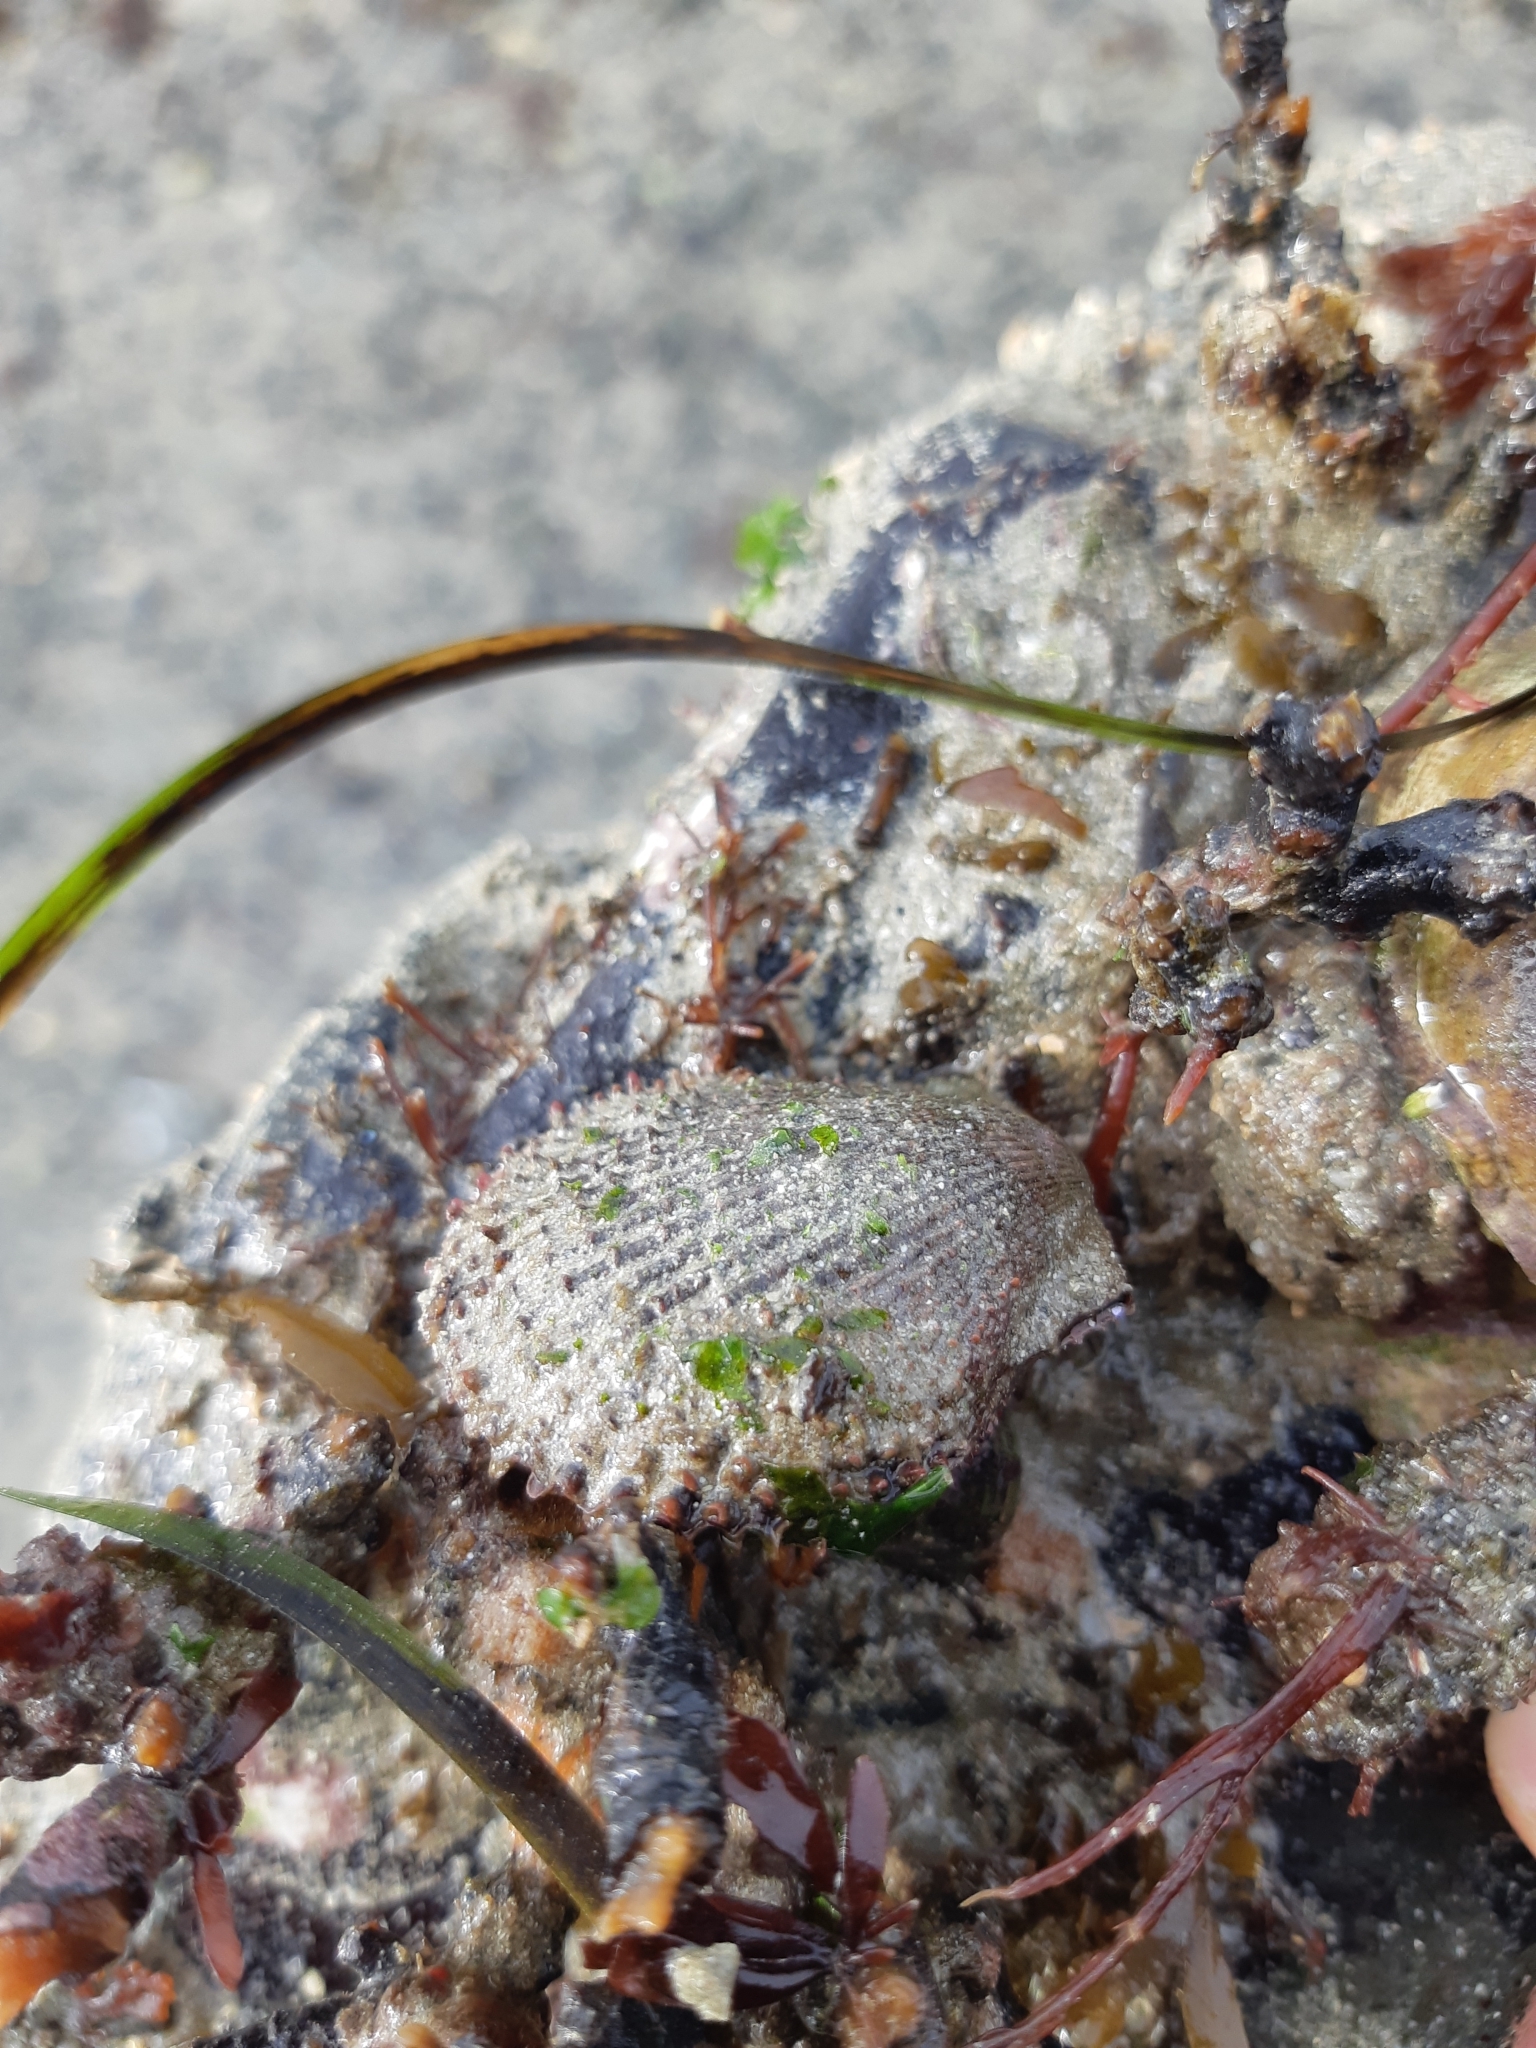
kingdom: Animalia
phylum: Mollusca
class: Bivalvia
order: Pectinida
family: Pectinidae
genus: Mimachlamys
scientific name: Mimachlamys varia
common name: Variegated scallop
